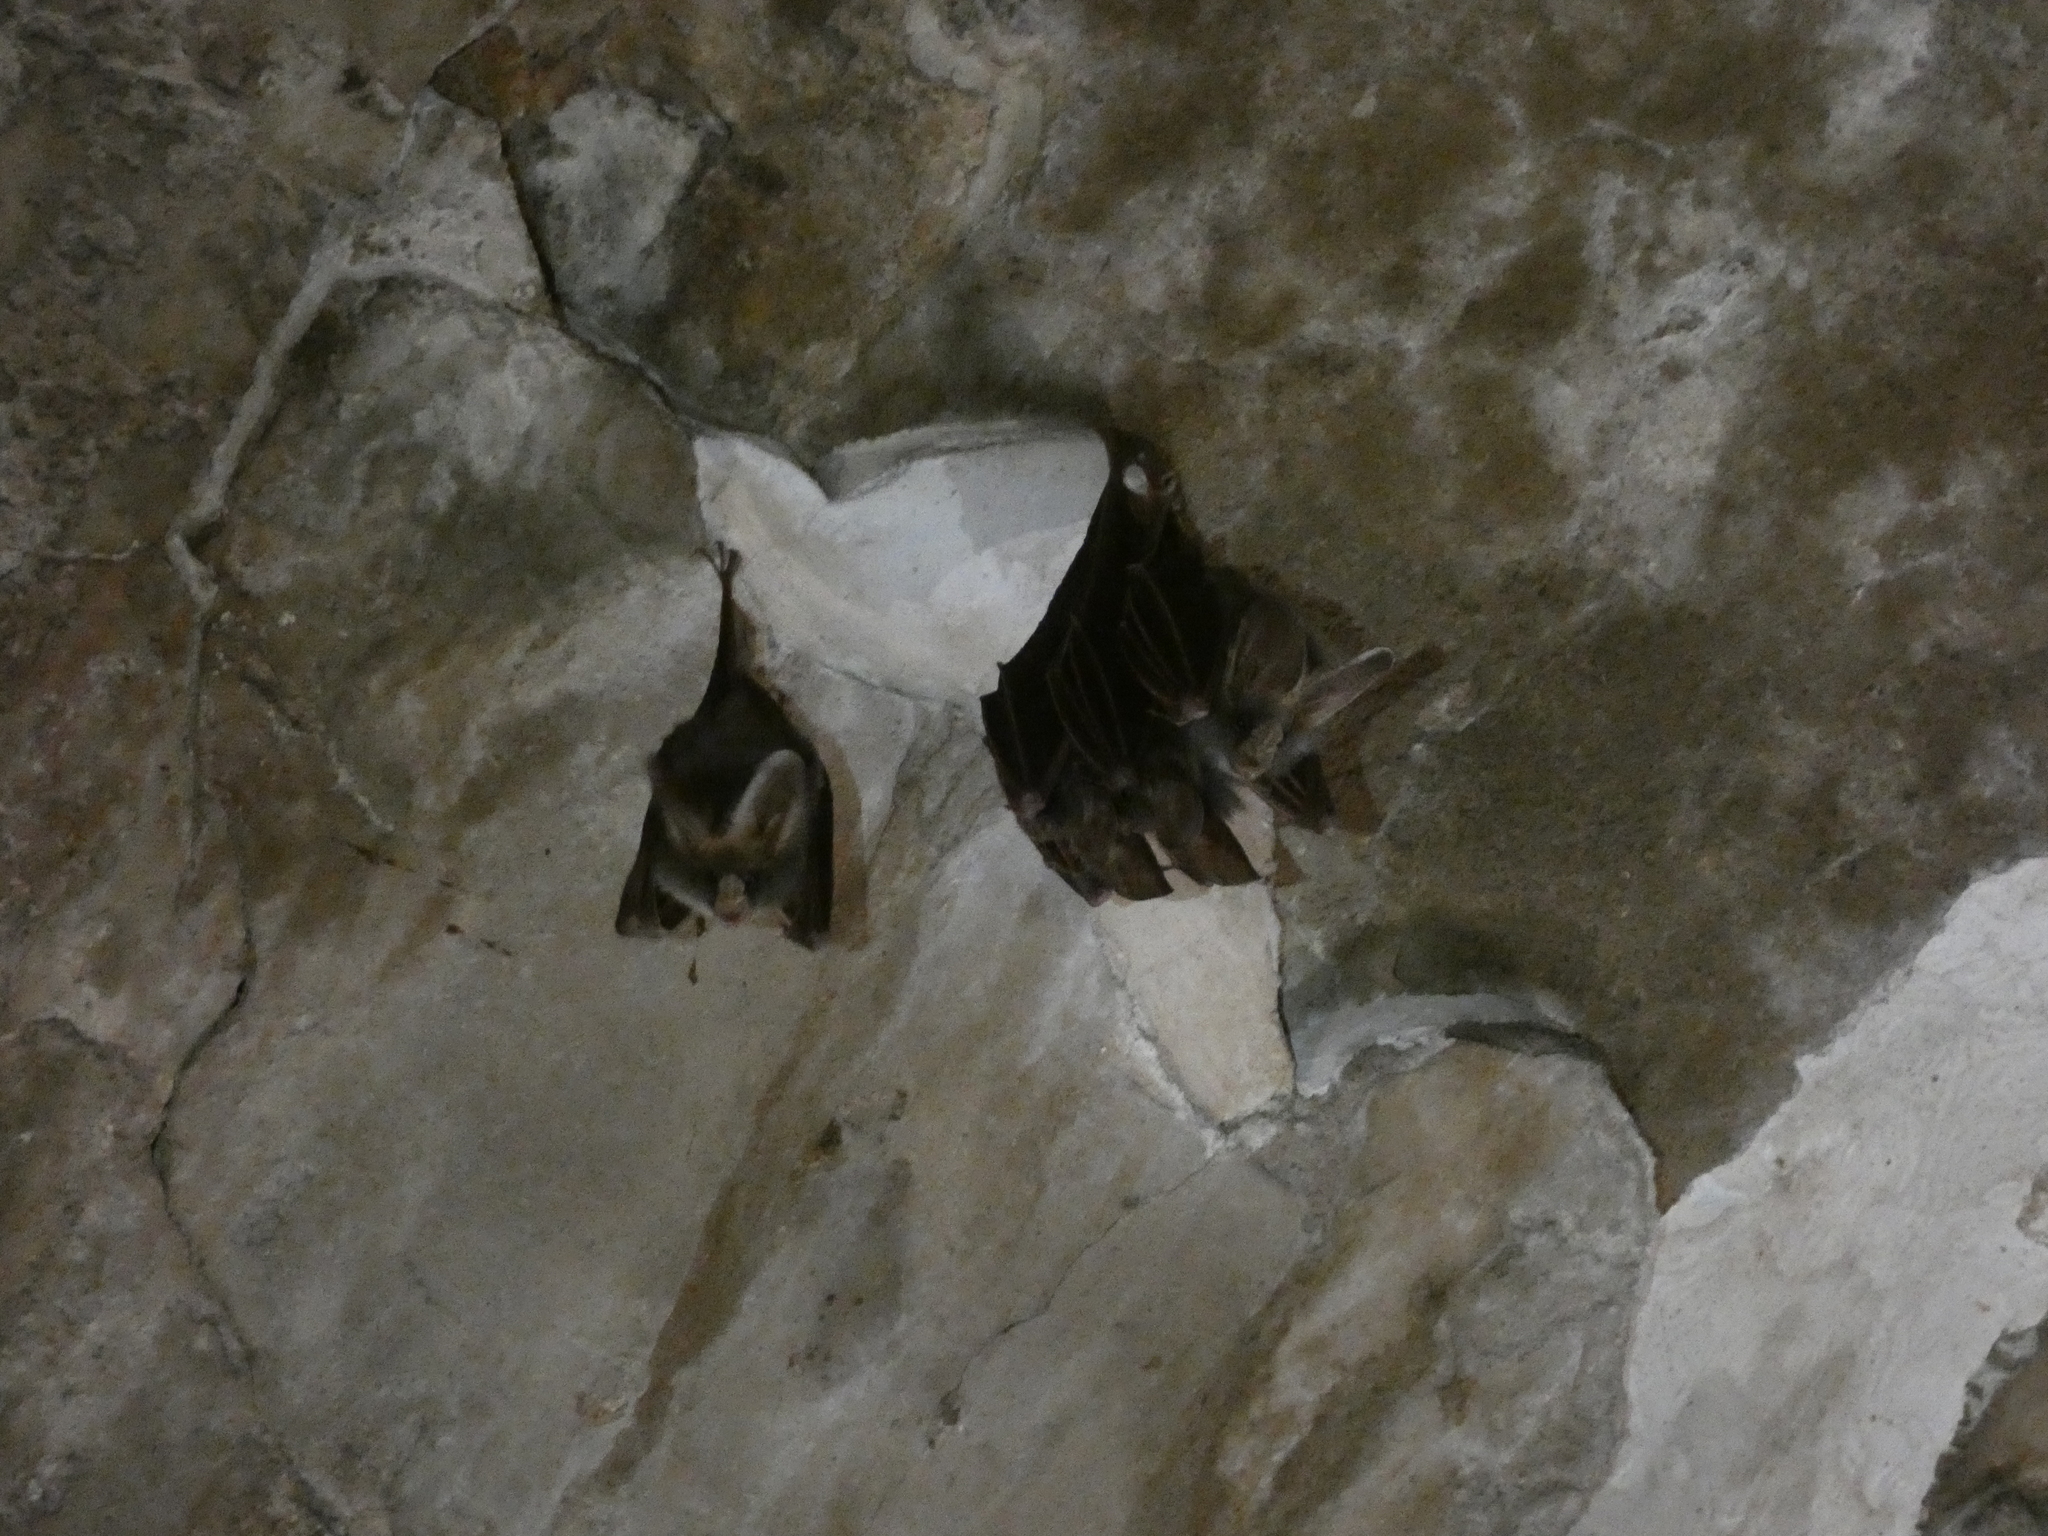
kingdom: Animalia
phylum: Chordata
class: Mammalia
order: Chiroptera
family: Megadermatidae
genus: Megaderma
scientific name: Megaderma spasma
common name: Lesser false vampire bat
